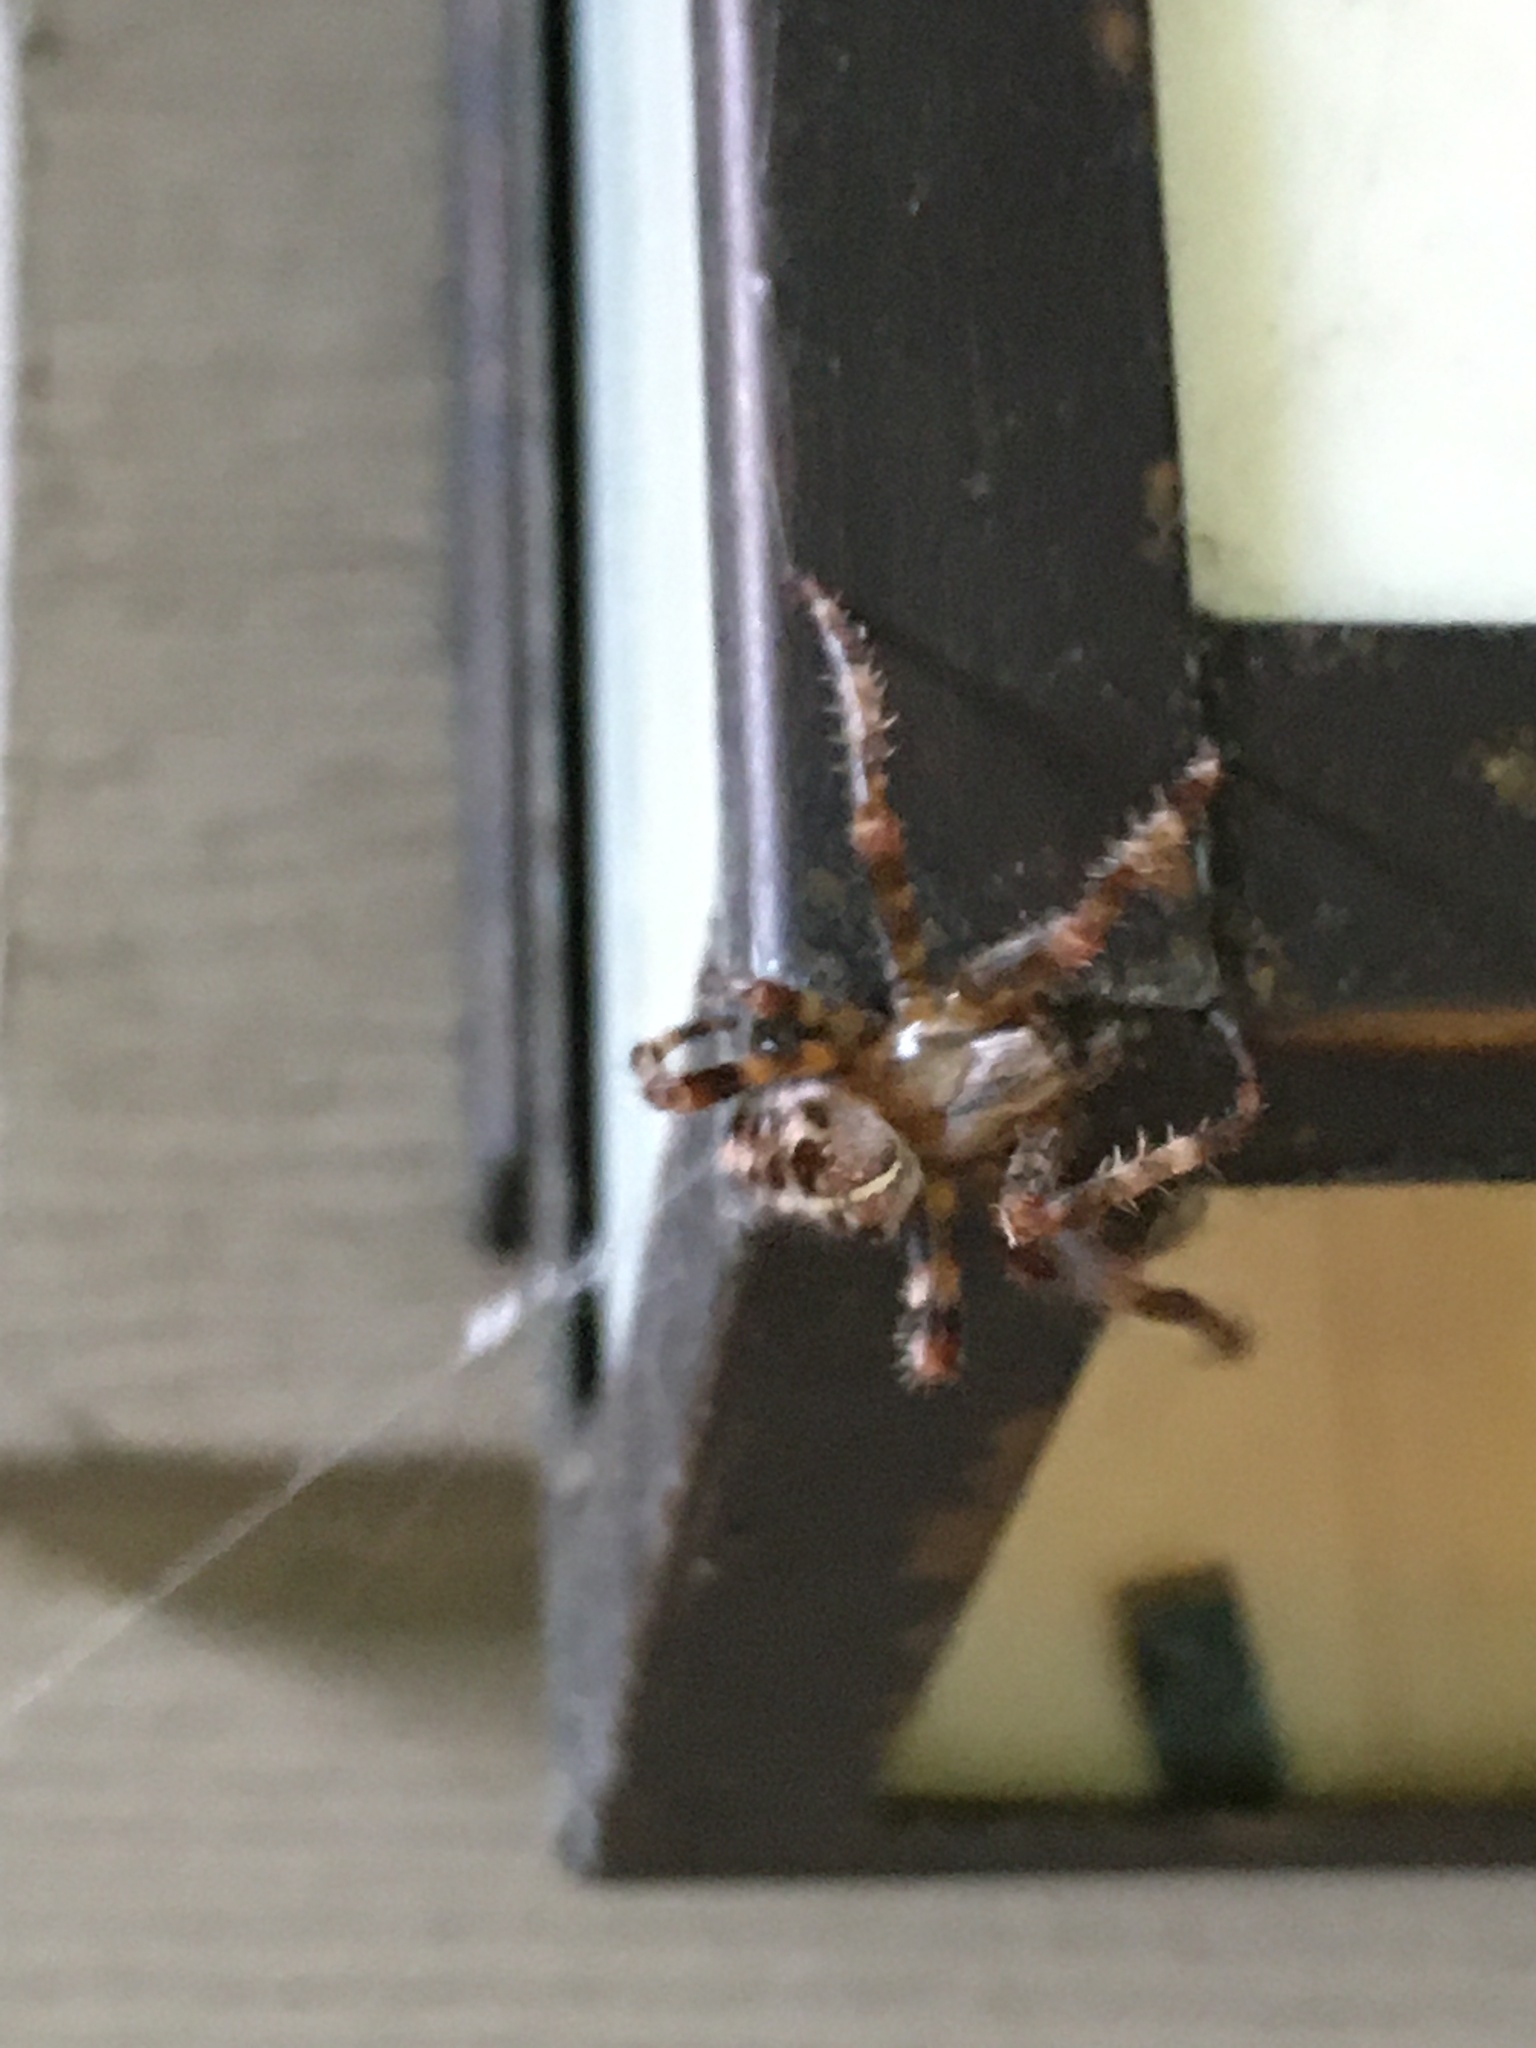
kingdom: Animalia
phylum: Arthropoda
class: Arachnida
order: Araneae
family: Araneidae
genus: Araneus
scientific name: Araneus diadematus
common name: Cross orbweaver
